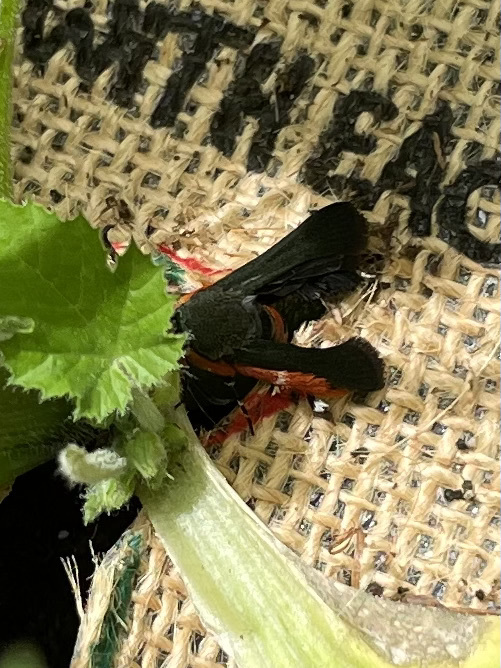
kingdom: Animalia
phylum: Arthropoda
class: Insecta
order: Lepidoptera
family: Sesiidae
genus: Eichlinia
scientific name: Eichlinia cucurbitae
